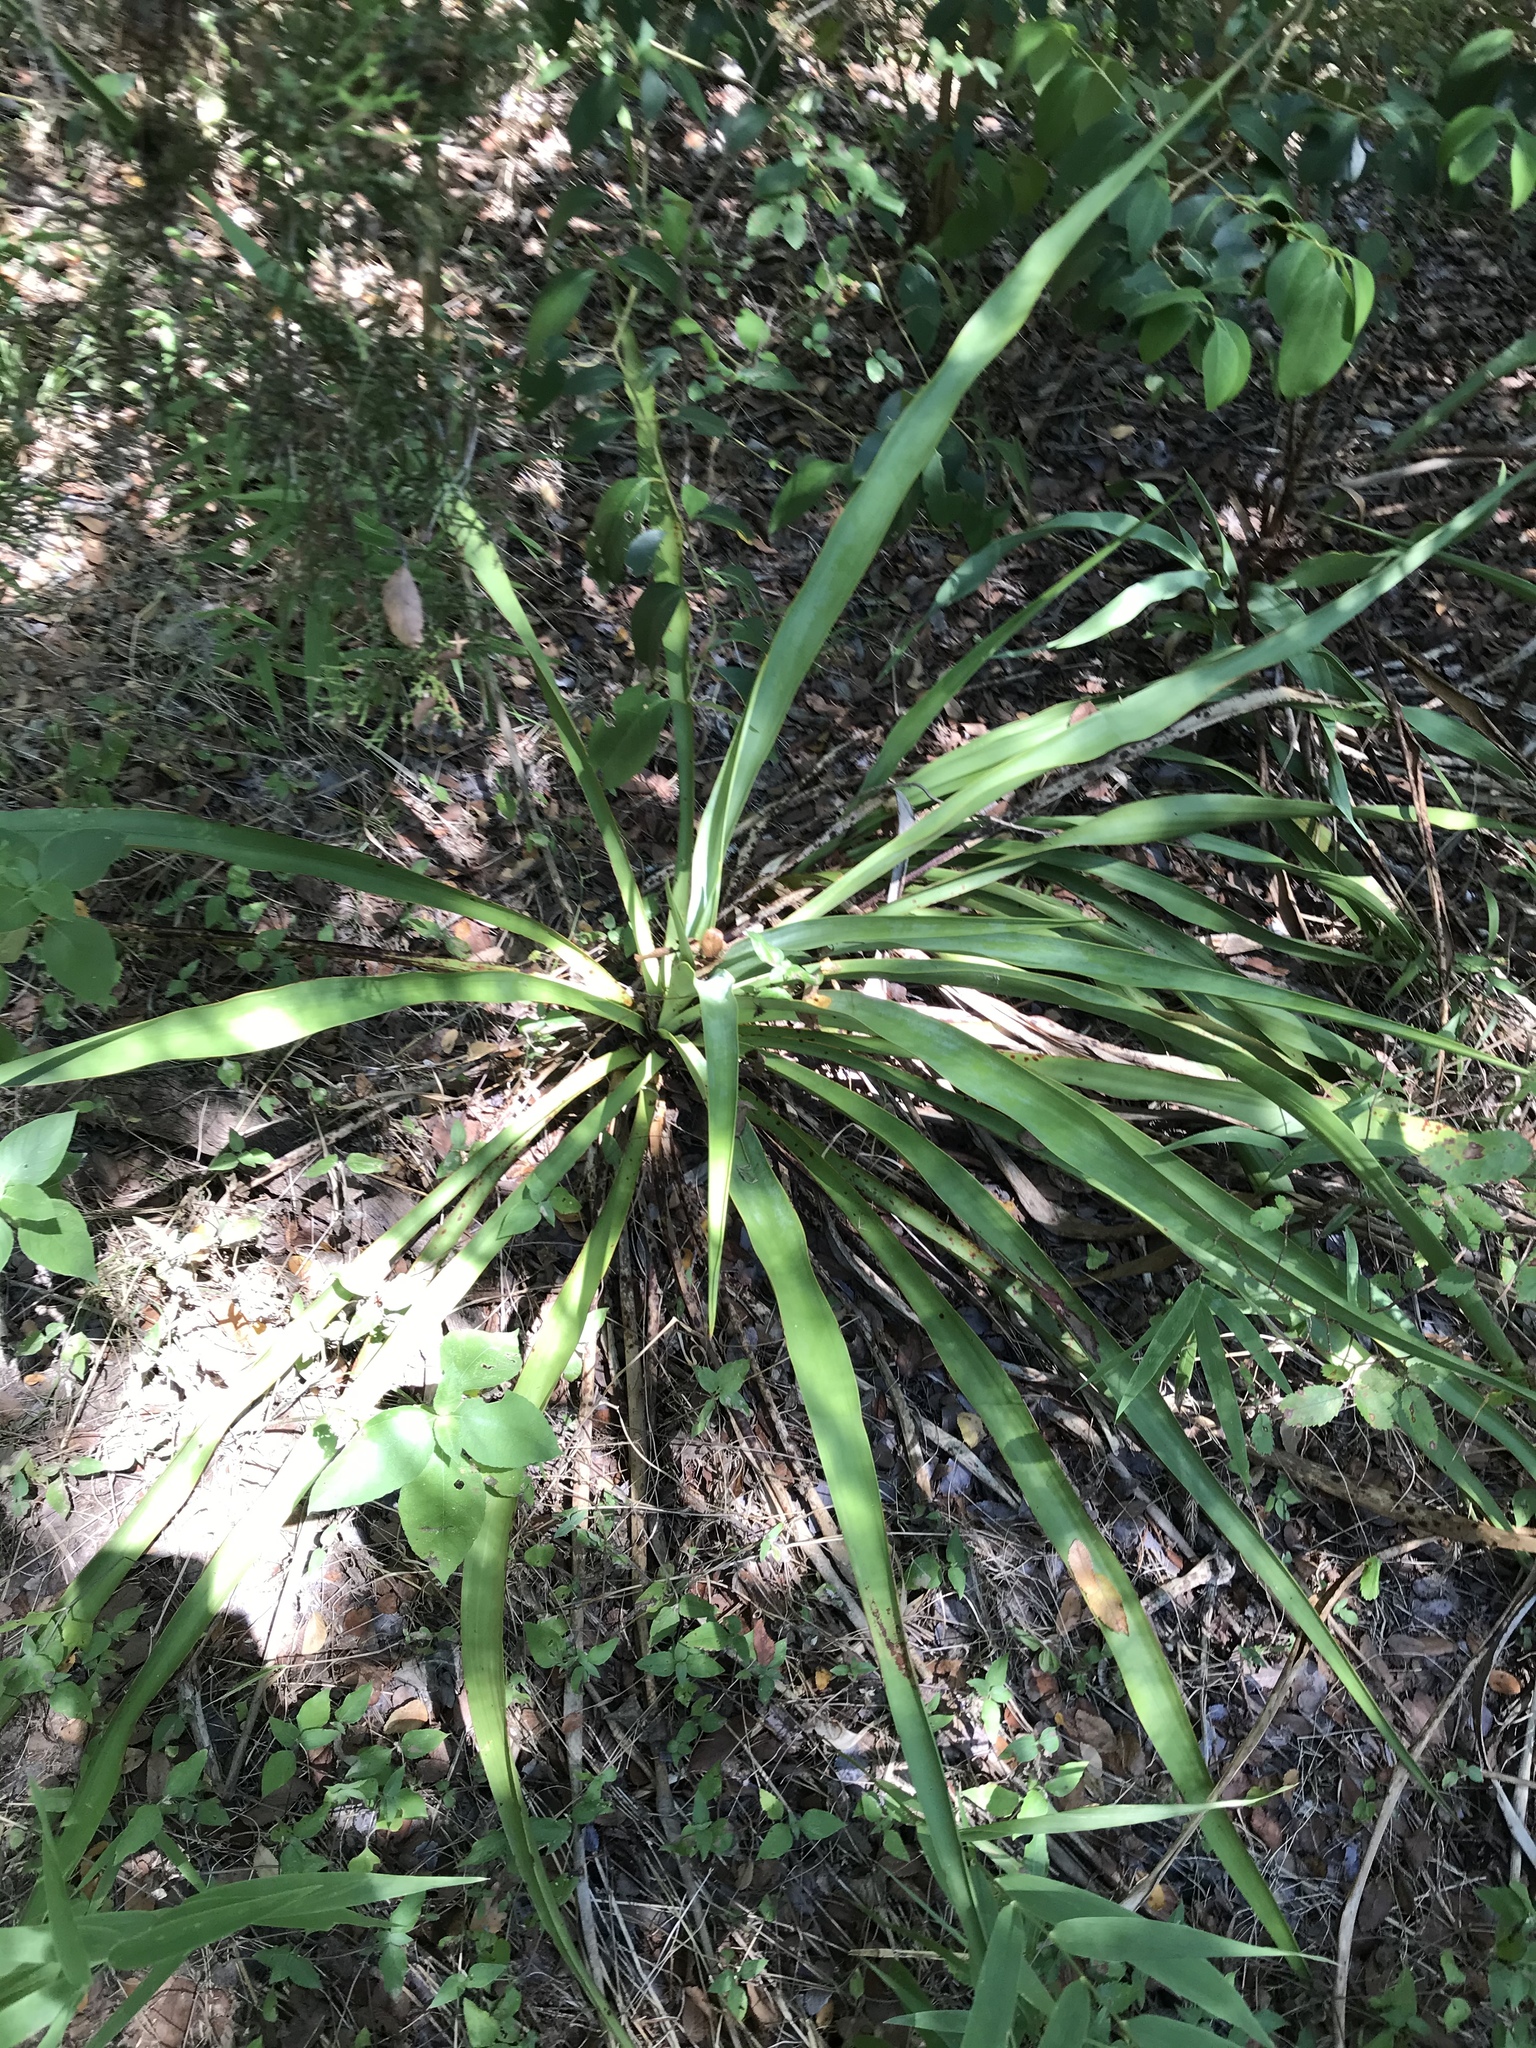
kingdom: Plantae
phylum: Tracheophyta
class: Liliopsida
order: Asparagales
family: Asparagaceae
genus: Yucca
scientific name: Yucca rupicola
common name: Twisted-leaf spanish-dagger
